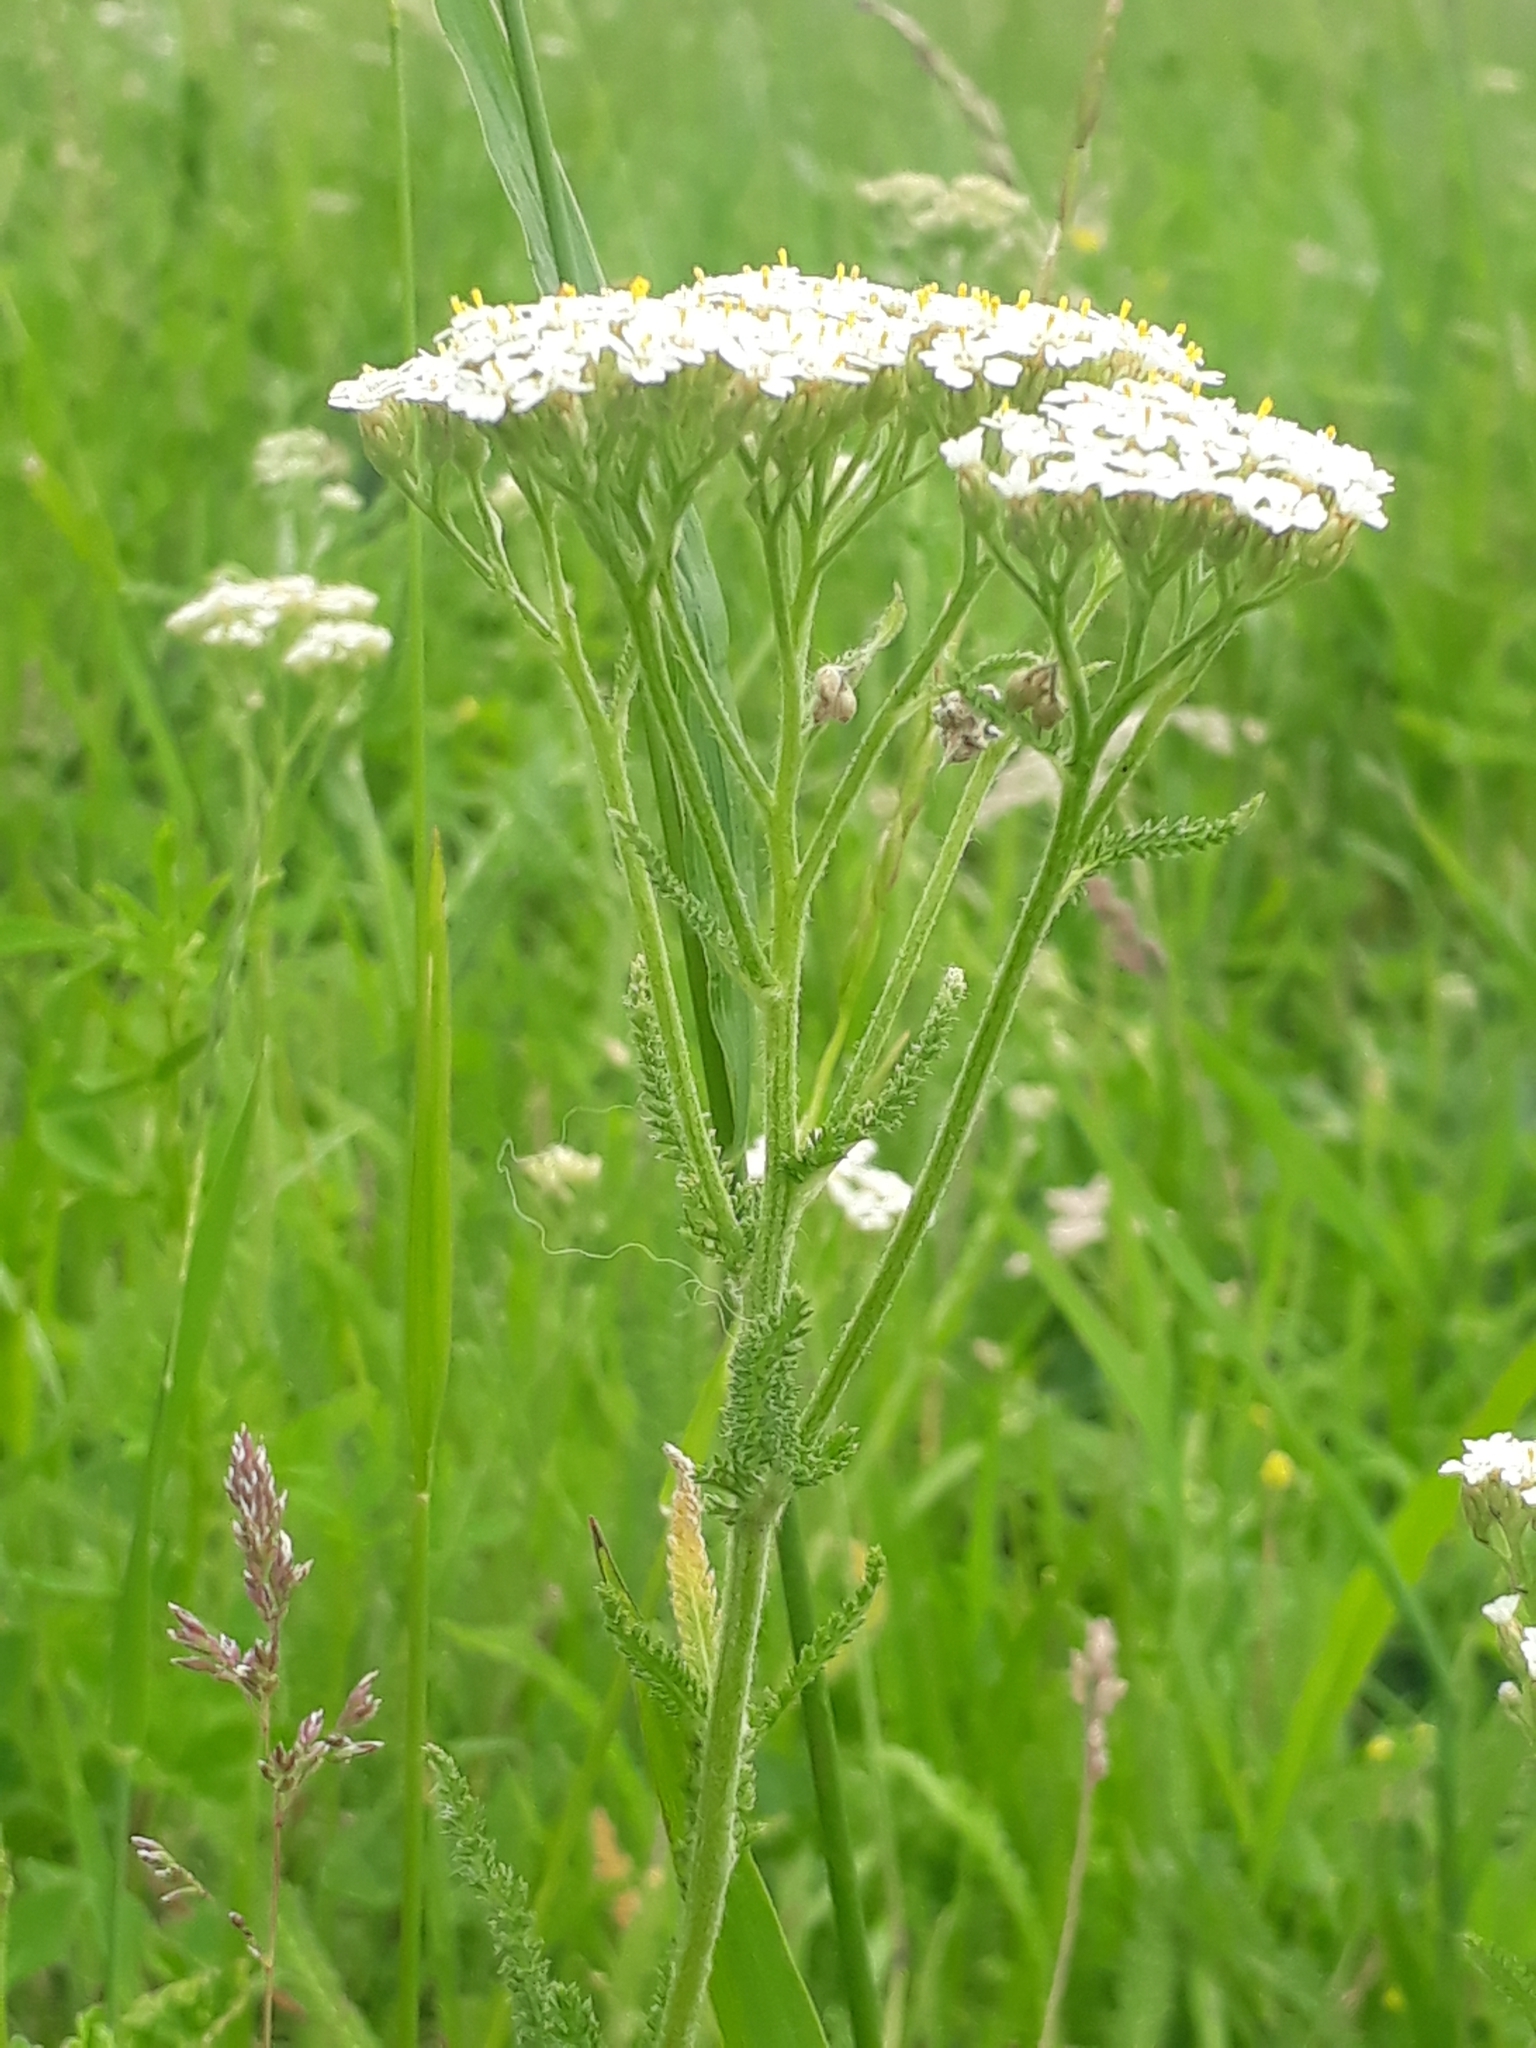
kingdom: Plantae
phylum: Tracheophyta
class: Magnoliopsida
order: Asterales
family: Asteraceae
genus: Achillea
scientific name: Achillea asiatica
